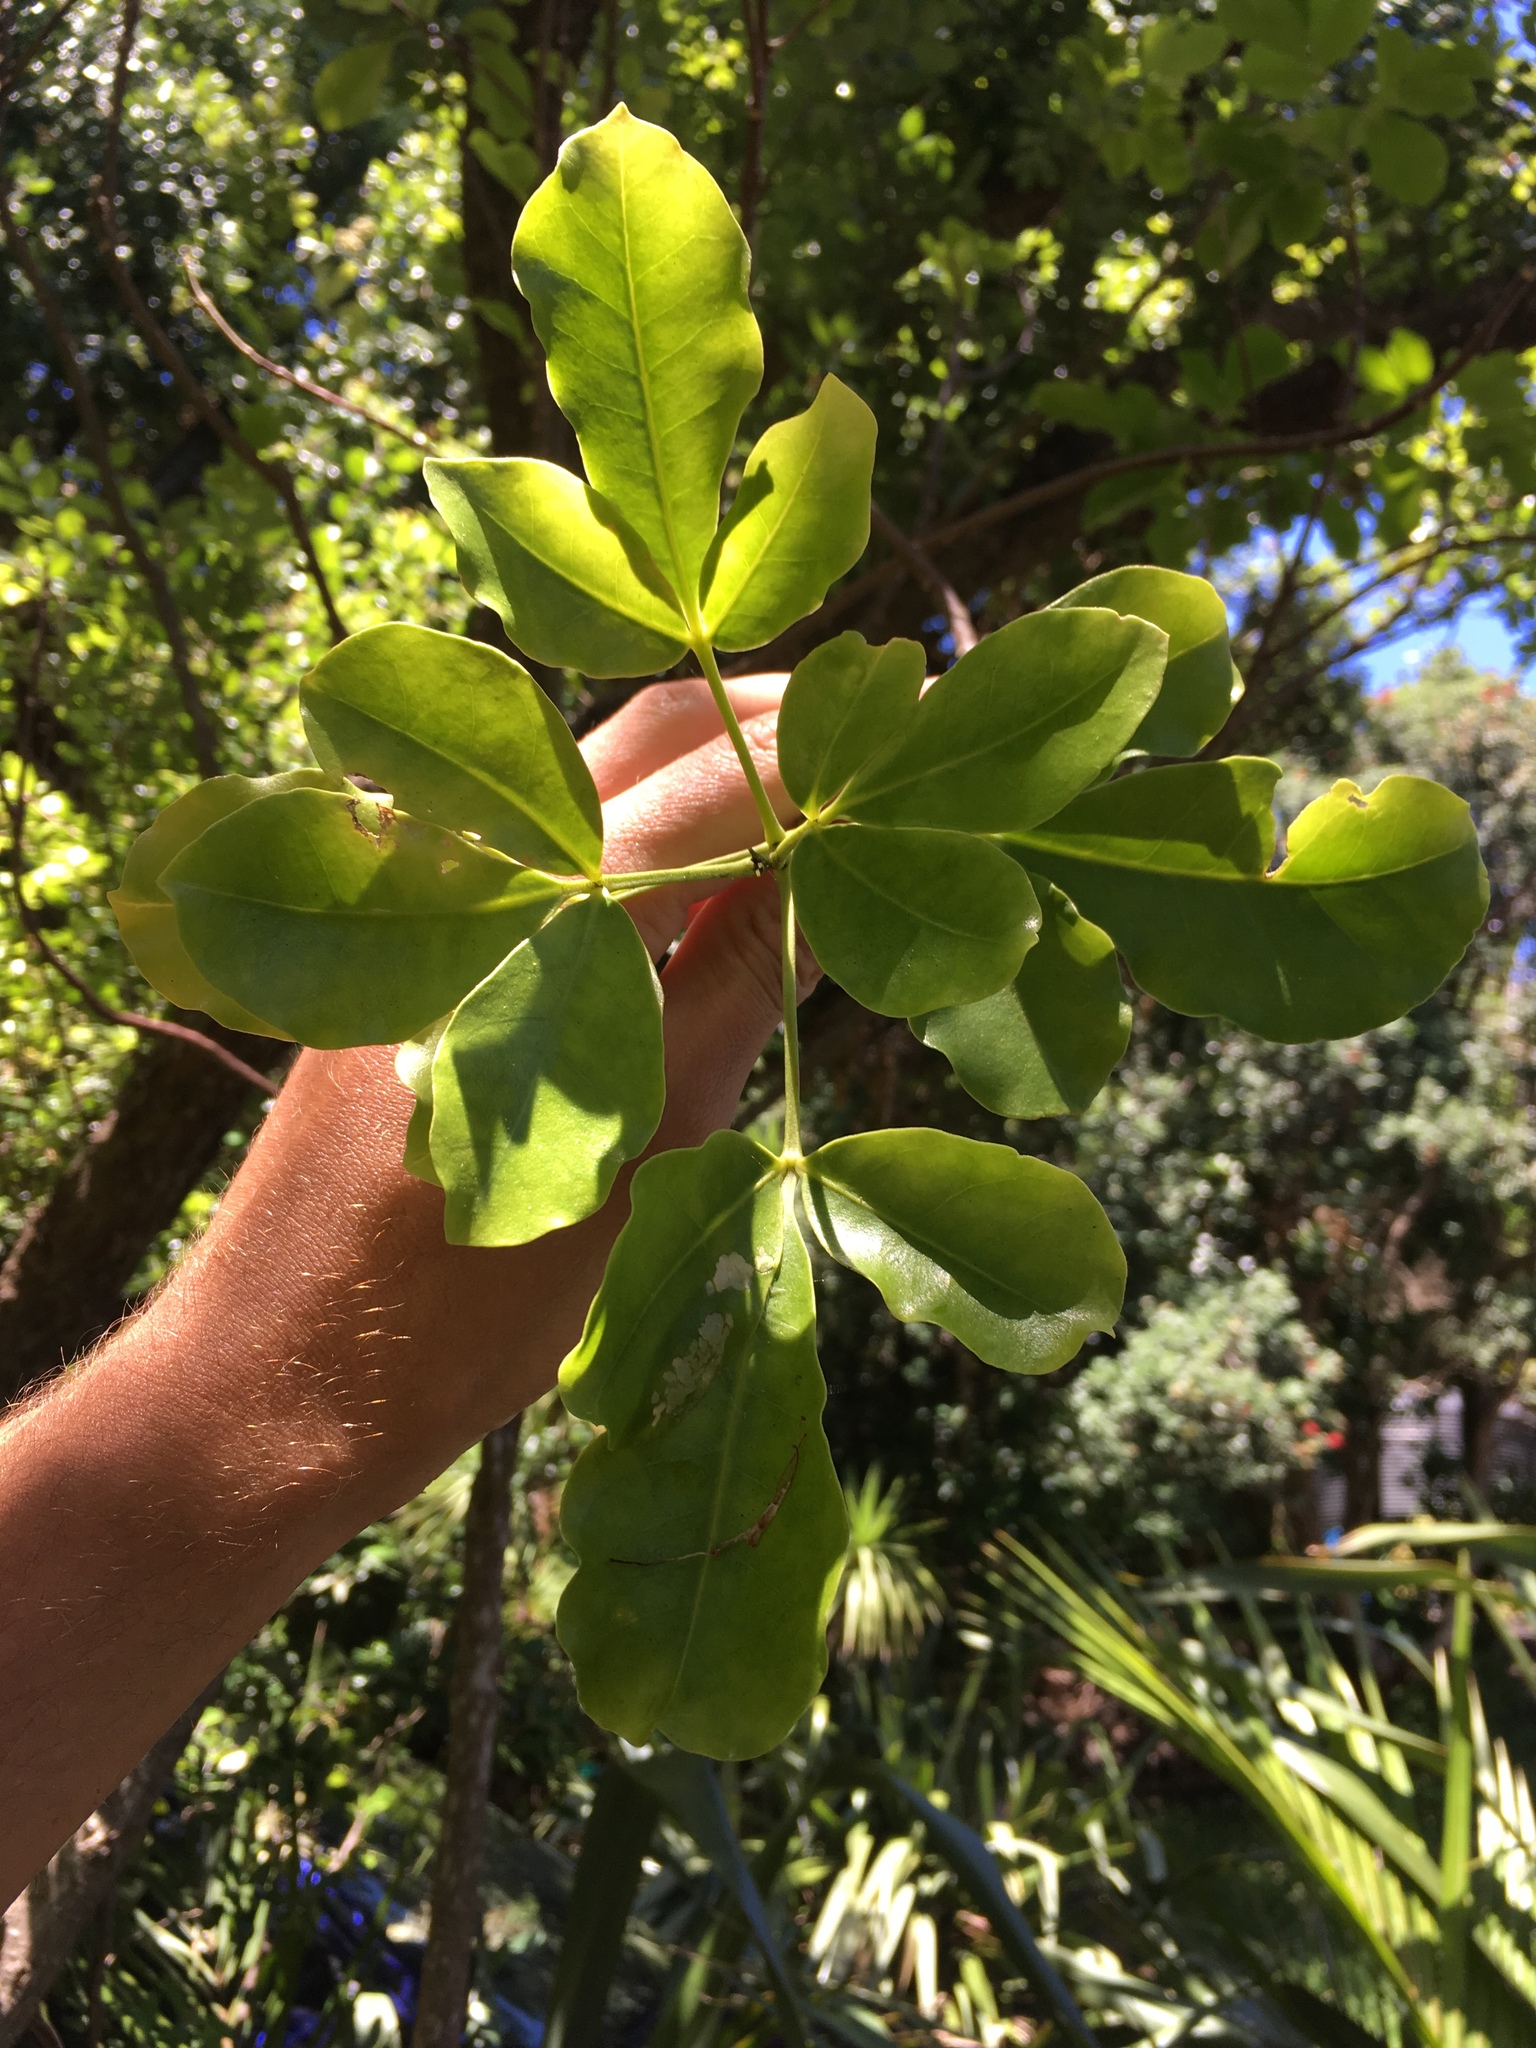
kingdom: Plantae
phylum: Tracheophyta
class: Magnoliopsida
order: Sapindales
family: Rutaceae
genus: Melicope
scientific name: Melicope ternata
